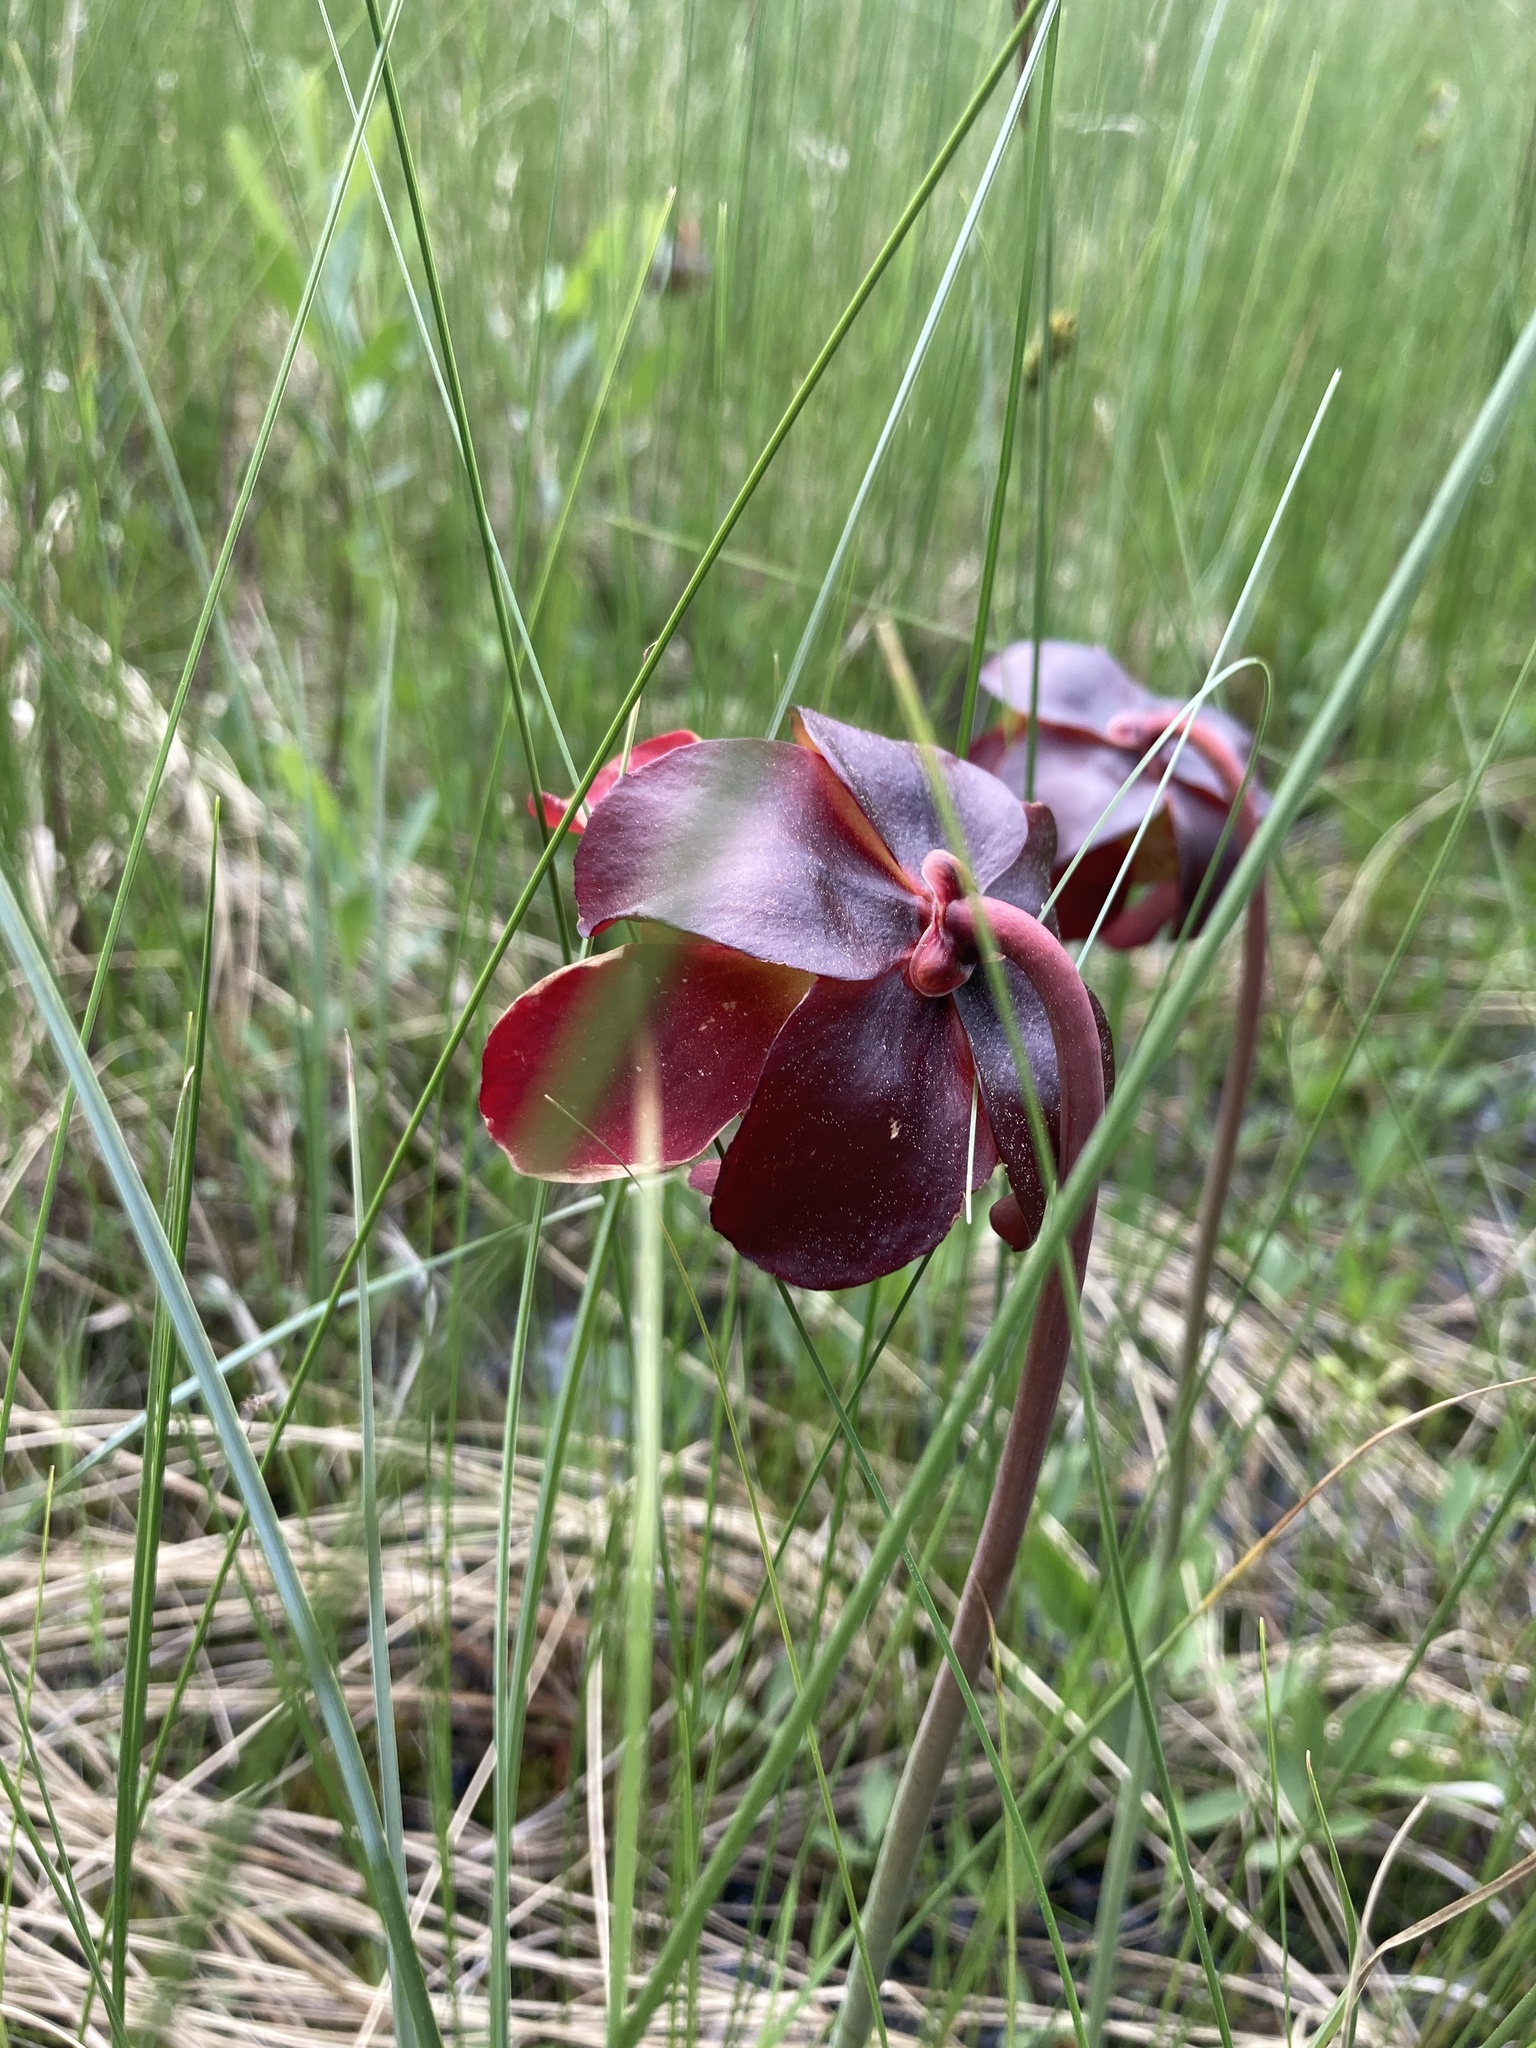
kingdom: Plantae
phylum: Tracheophyta
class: Magnoliopsida
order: Ericales
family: Sarraceniaceae
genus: Sarracenia
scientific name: Sarracenia purpurea
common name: Pitcherplant
